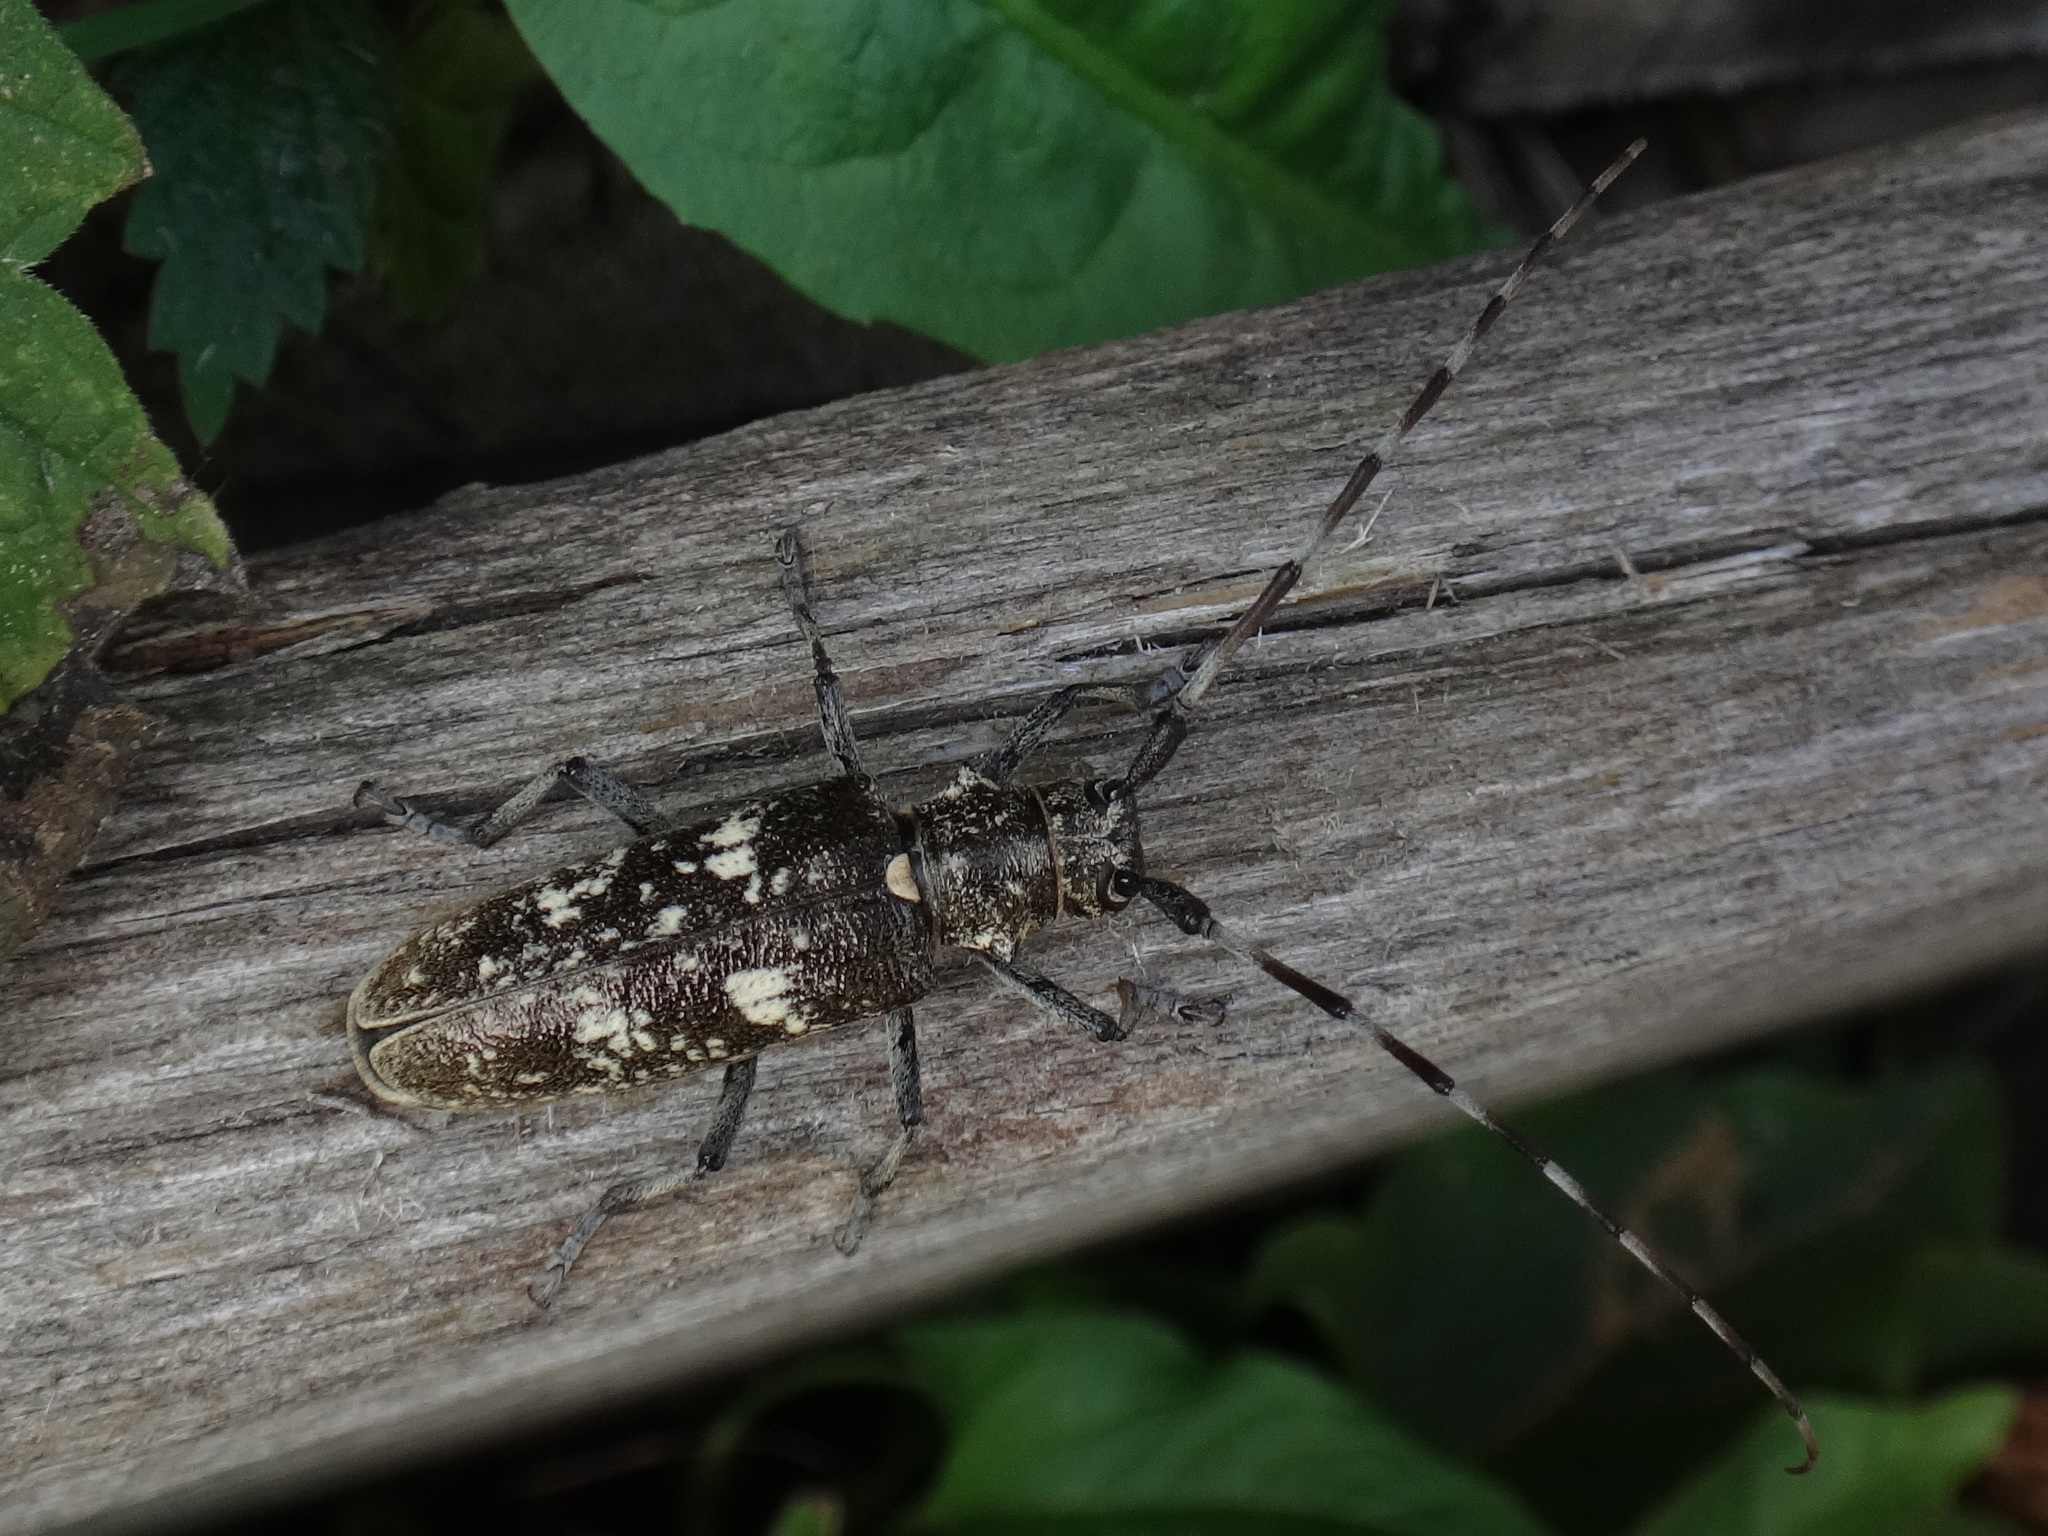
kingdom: Animalia
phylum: Arthropoda
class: Insecta
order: Coleoptera
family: Cerambycidae
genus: Monochamus
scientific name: Monochamus sartor
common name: Pine sawyer
